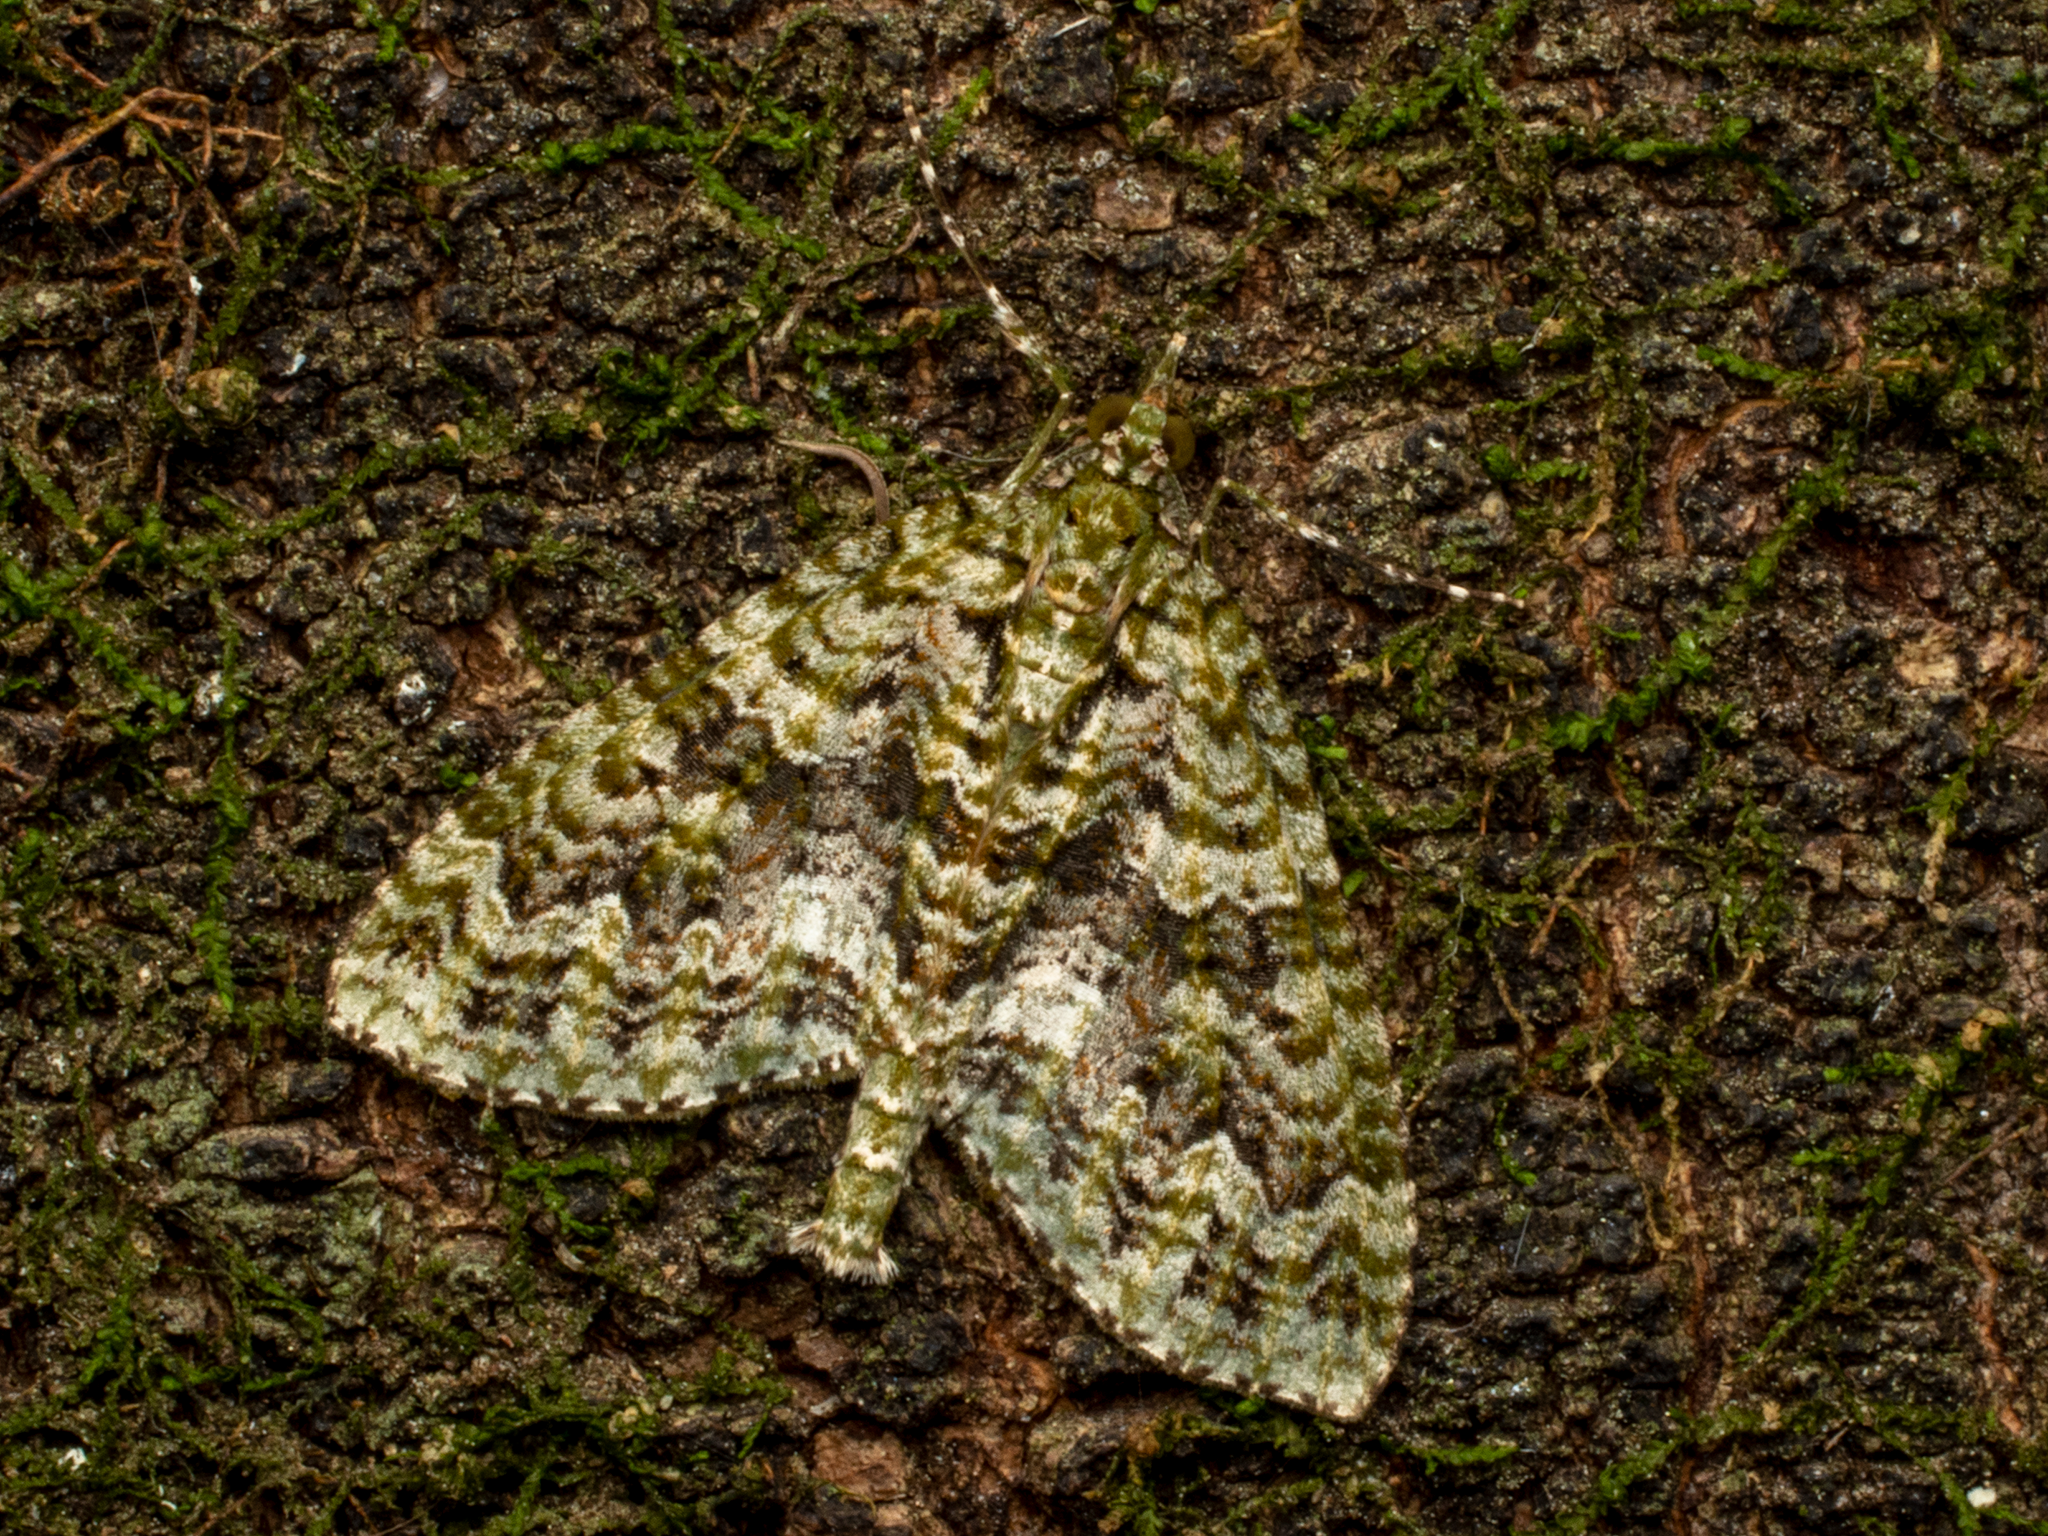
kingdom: Animalia
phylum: Arthropoda
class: Insecta
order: Lepidoptera
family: Geometridae
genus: Tatosoma
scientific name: Tatosoma agrionata
